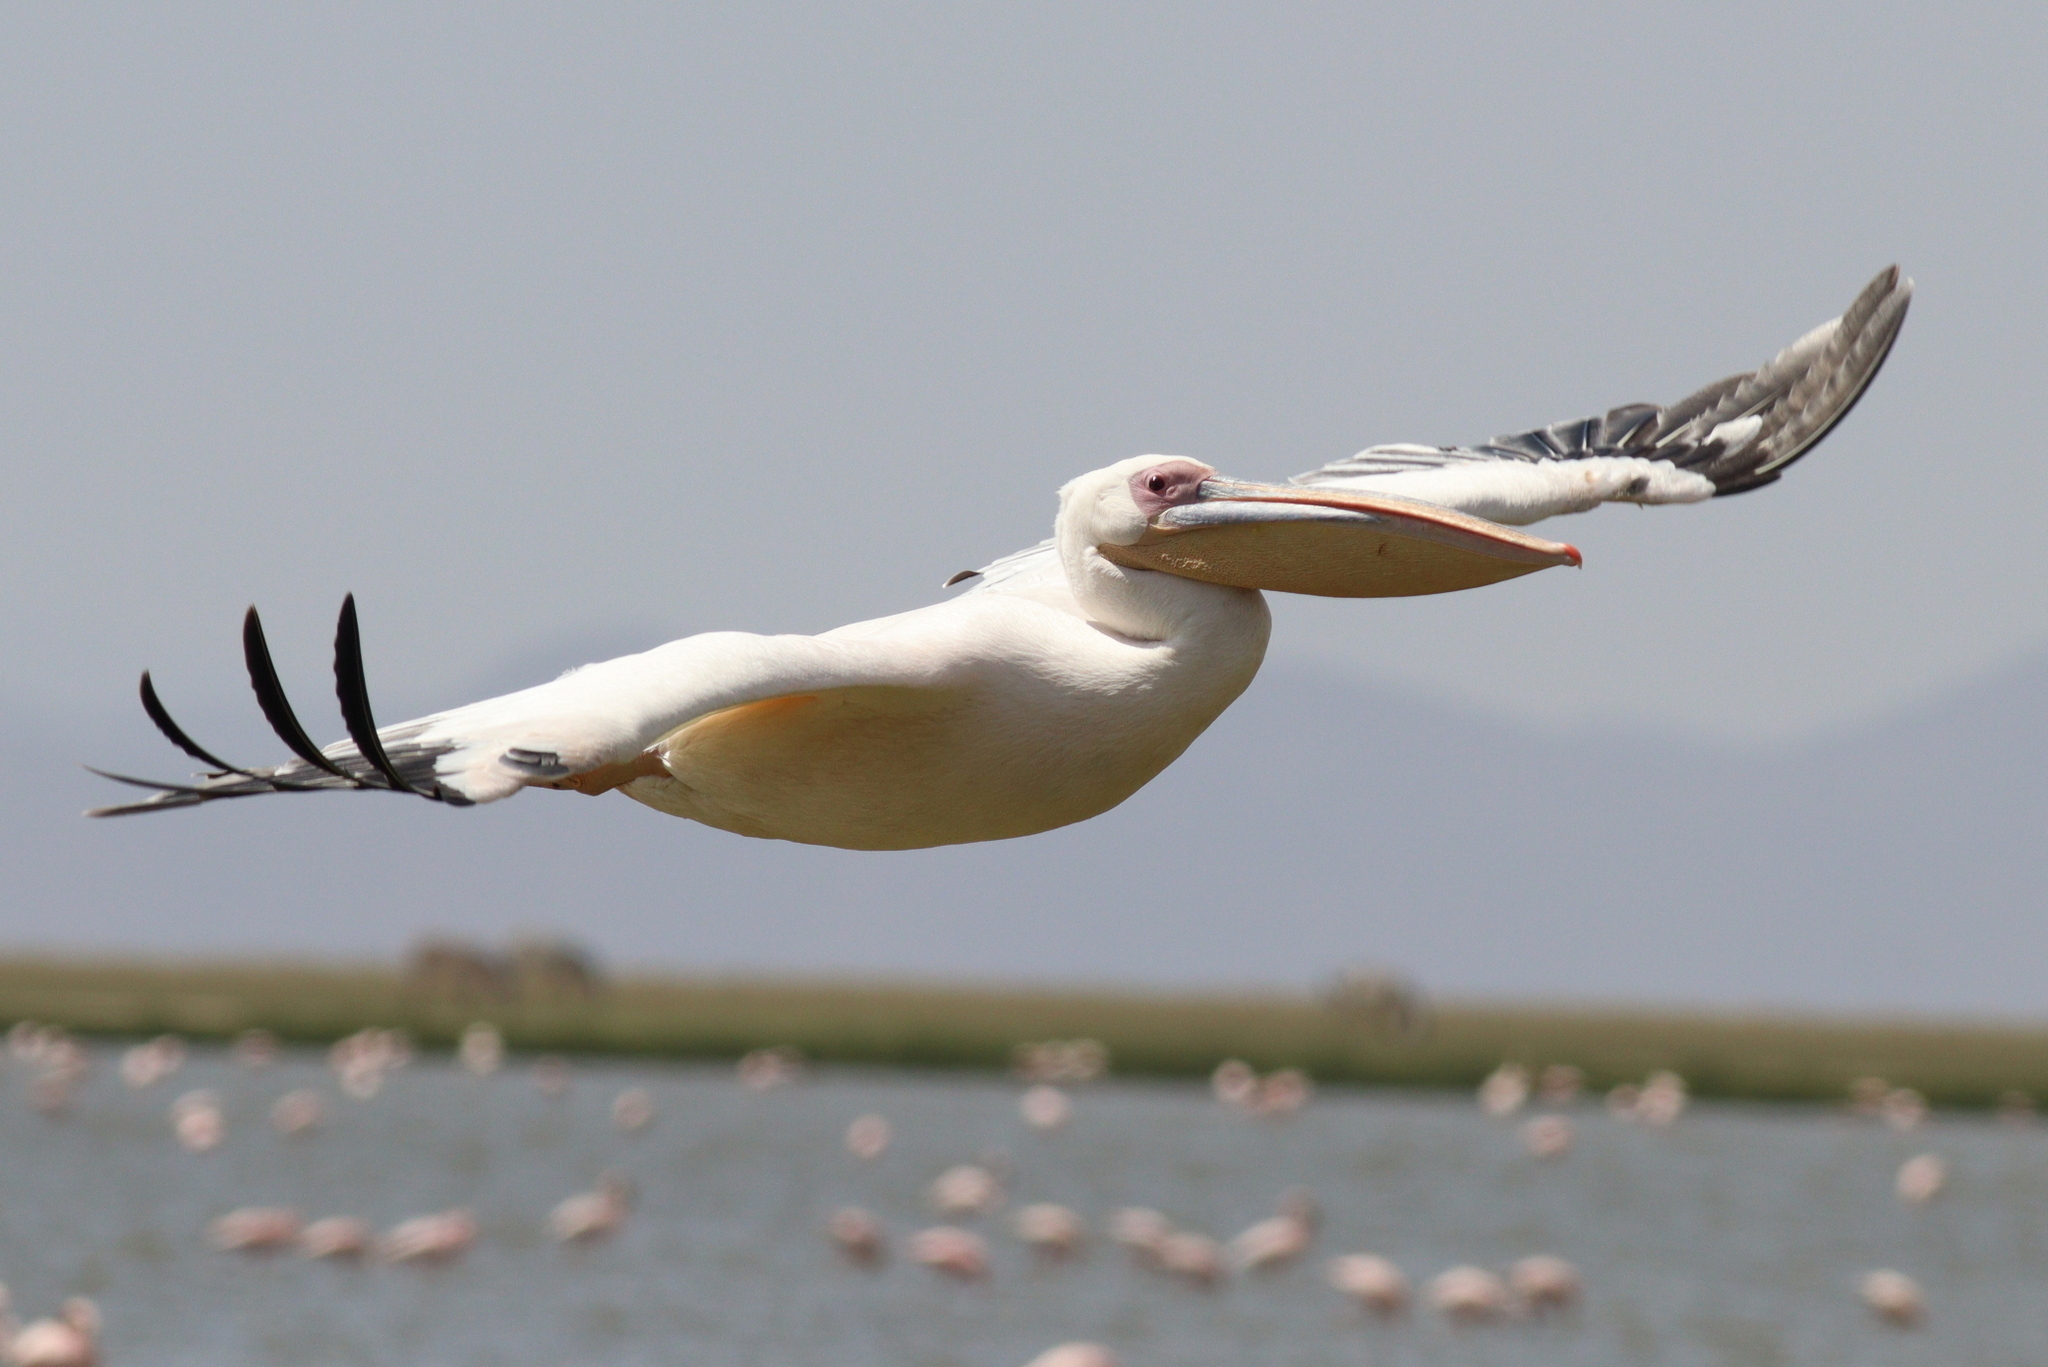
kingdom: Animalia
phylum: Chordata
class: Aves
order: Pelecaniformes
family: Pelecanidae
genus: Pelecanus
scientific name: Pelecanus onocrotalus
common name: Great white pelican
